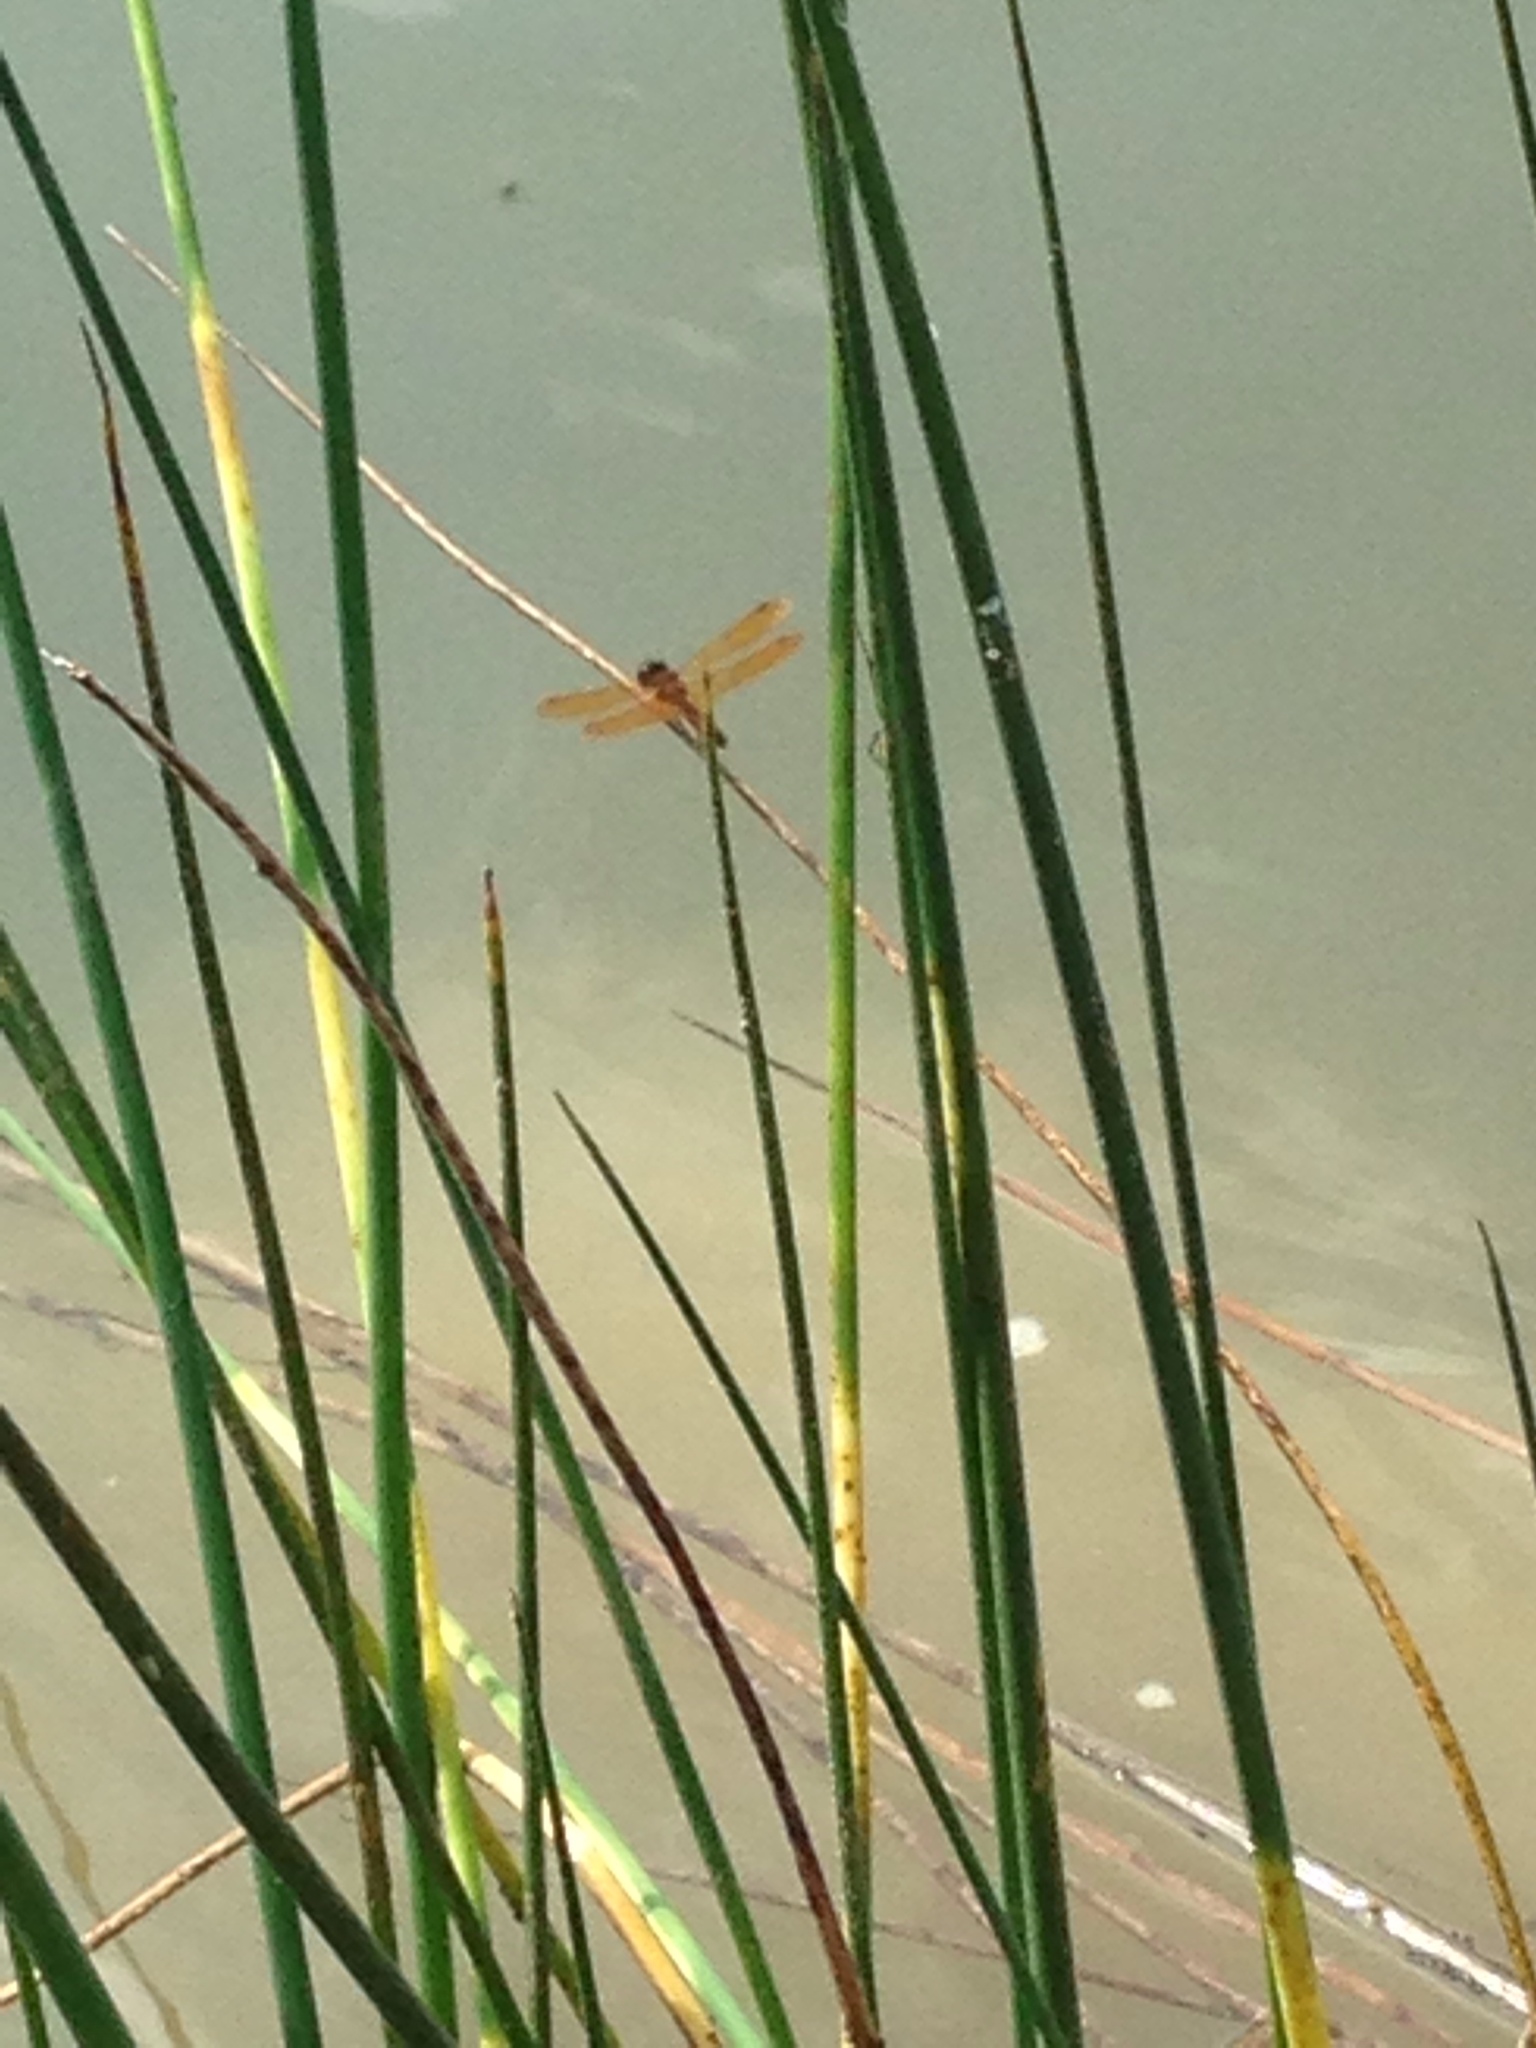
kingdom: Animalia
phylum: Arthropoda
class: Insecta
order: Odonata
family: Libellulidae
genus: Perithemis
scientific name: Perithemis tenera
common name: Eastern amberwing
